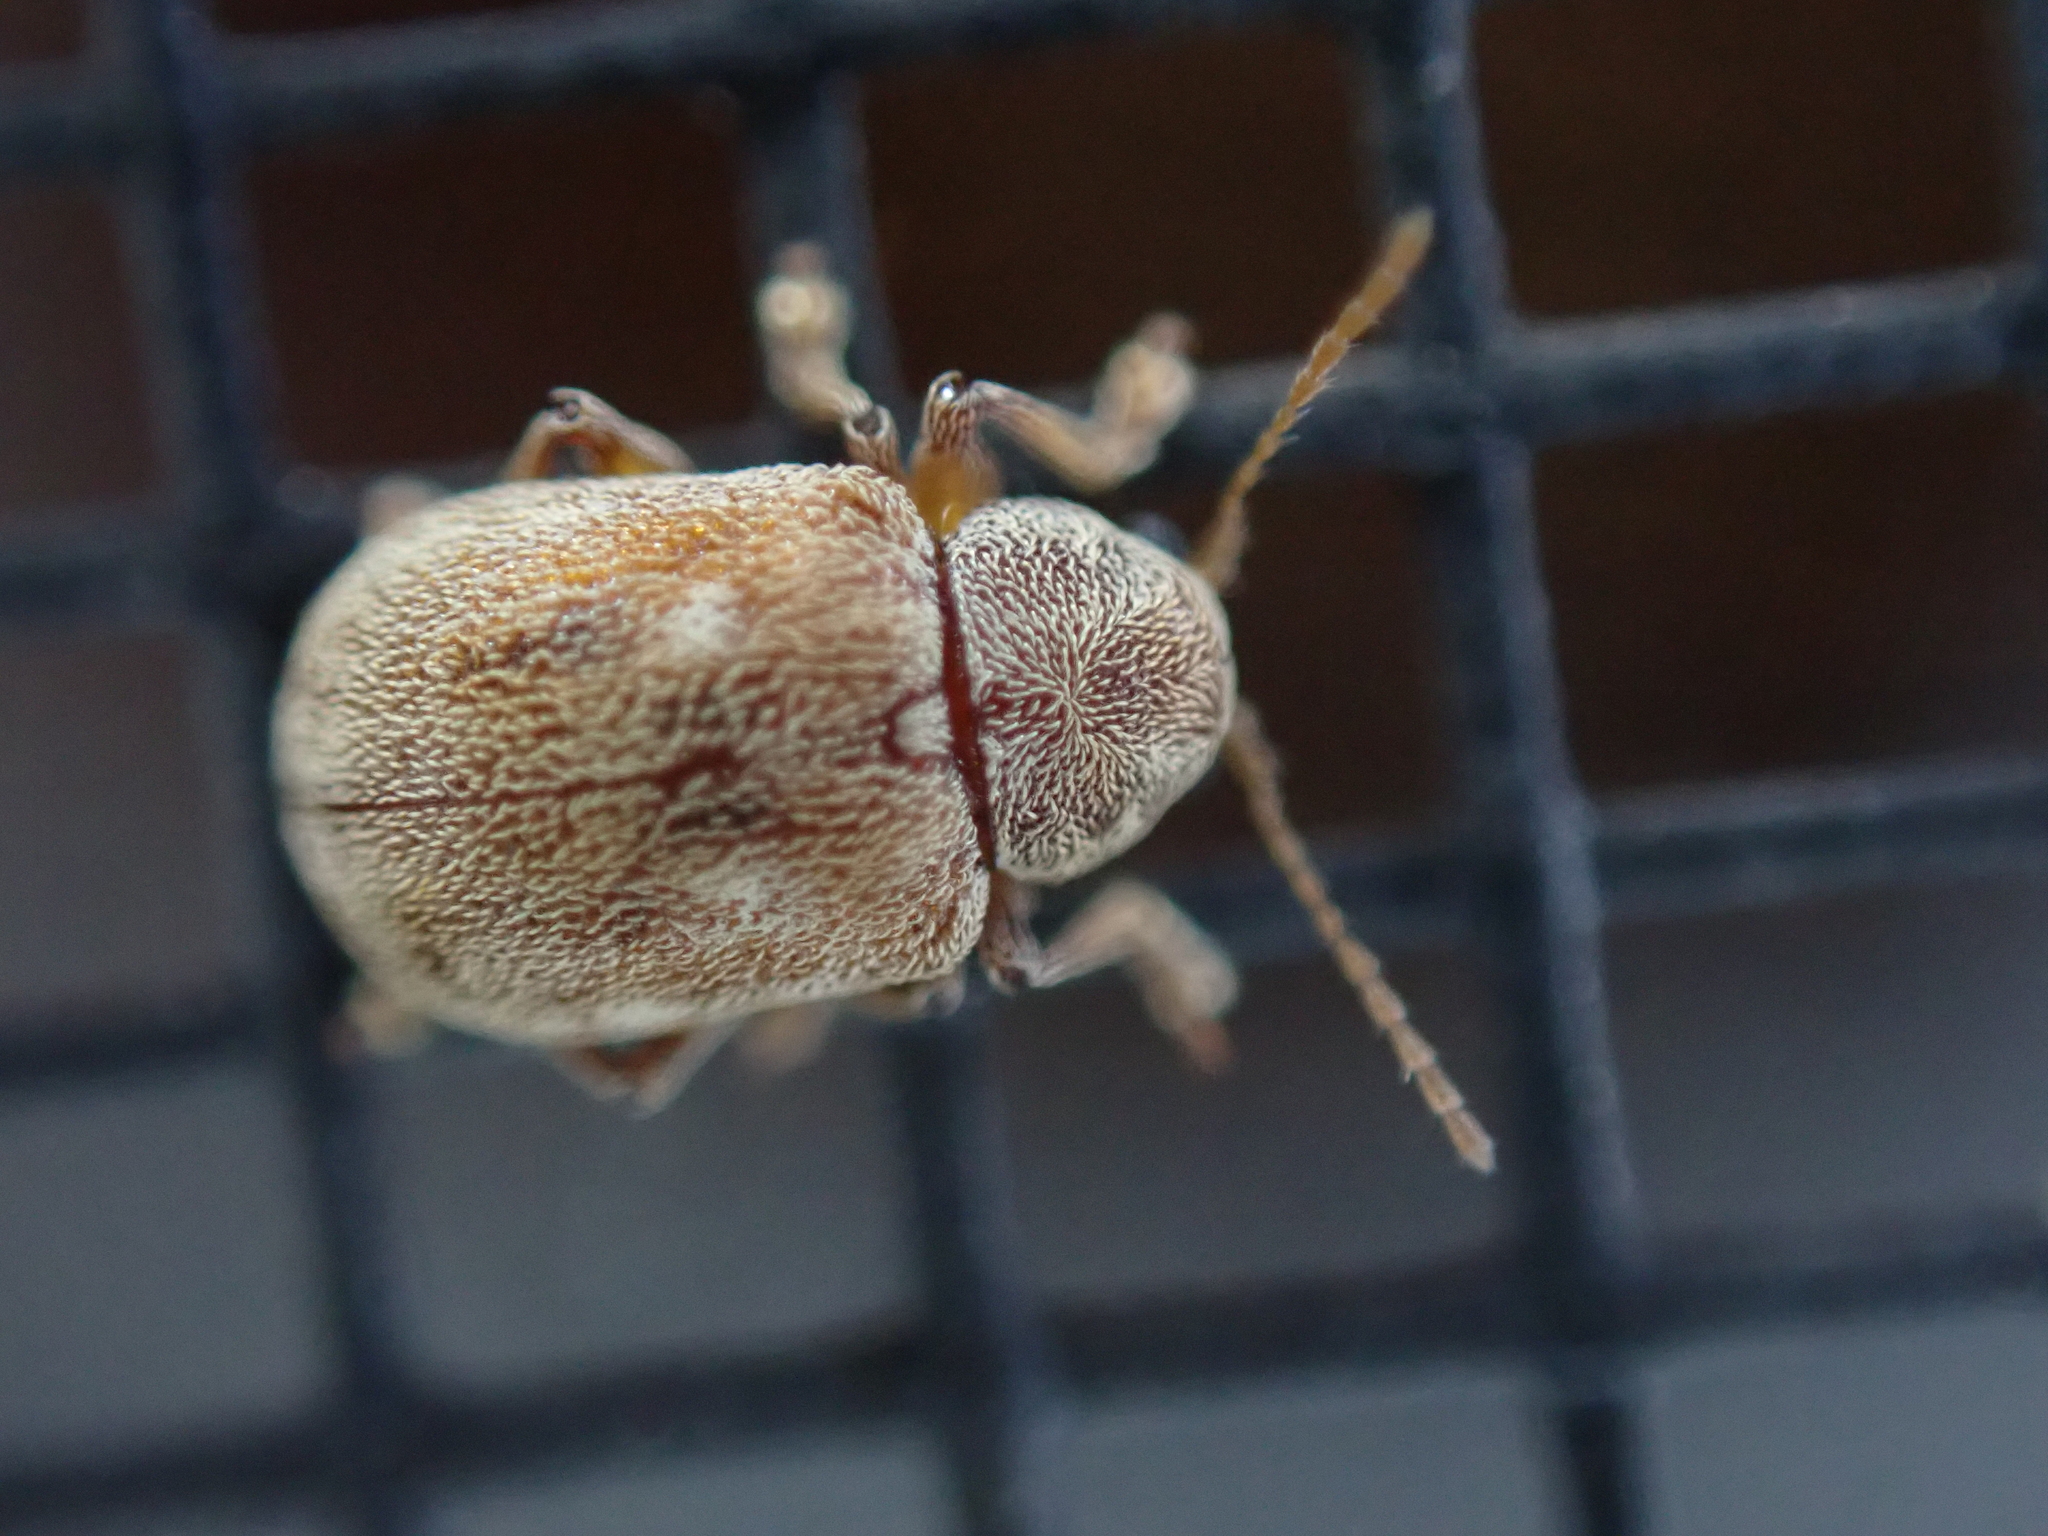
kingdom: Animalia
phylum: Arthropoda
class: Insecta
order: Coleoptera
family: Chrysomelidae
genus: Demotina
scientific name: Demotina modesta
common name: Leaf beetle
